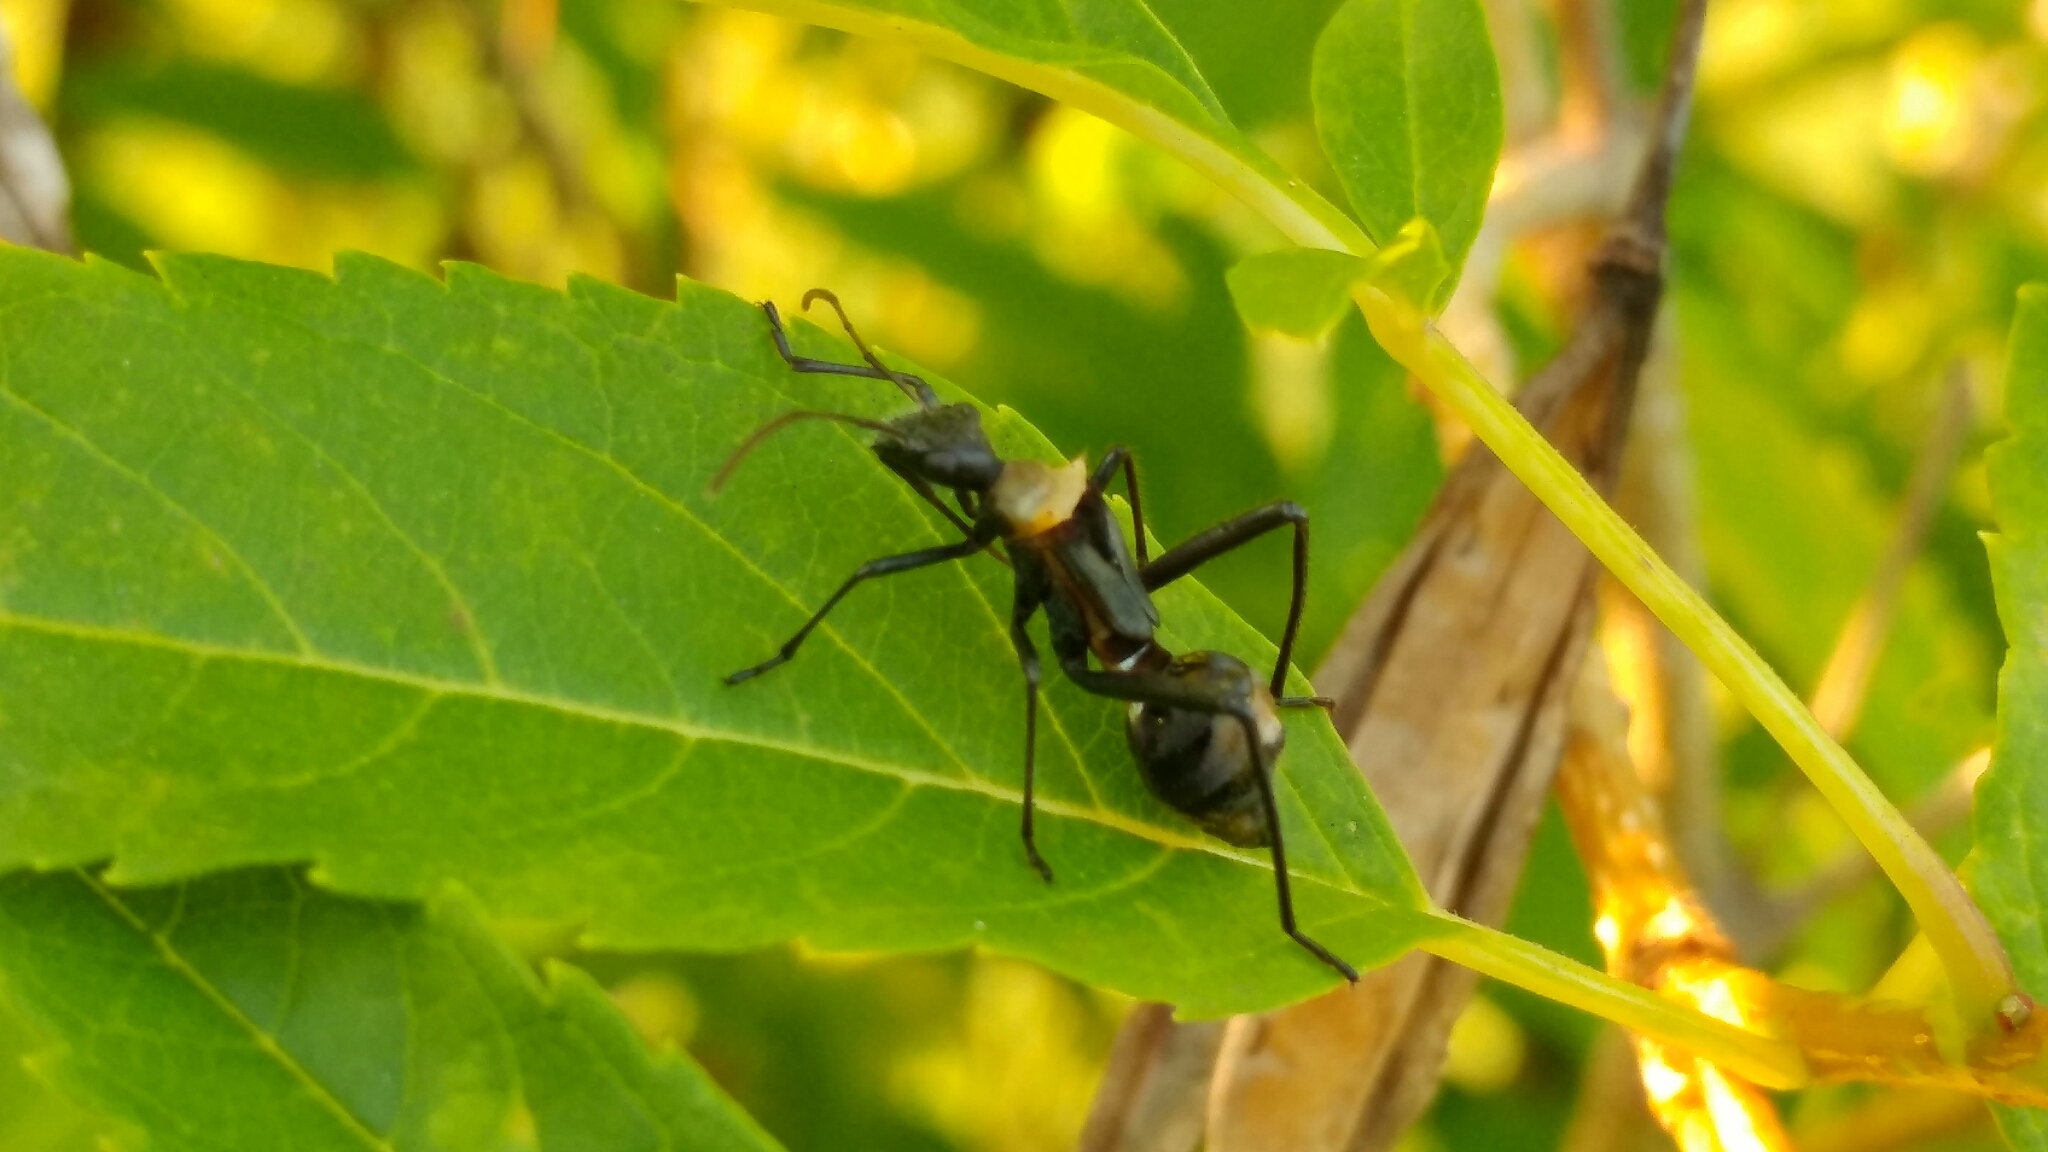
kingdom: Animalia
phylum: Arthropoda
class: Insecta
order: Hemiptera
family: Alydidae
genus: Hyalymenus
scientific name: Hyalymenus tarsatus
